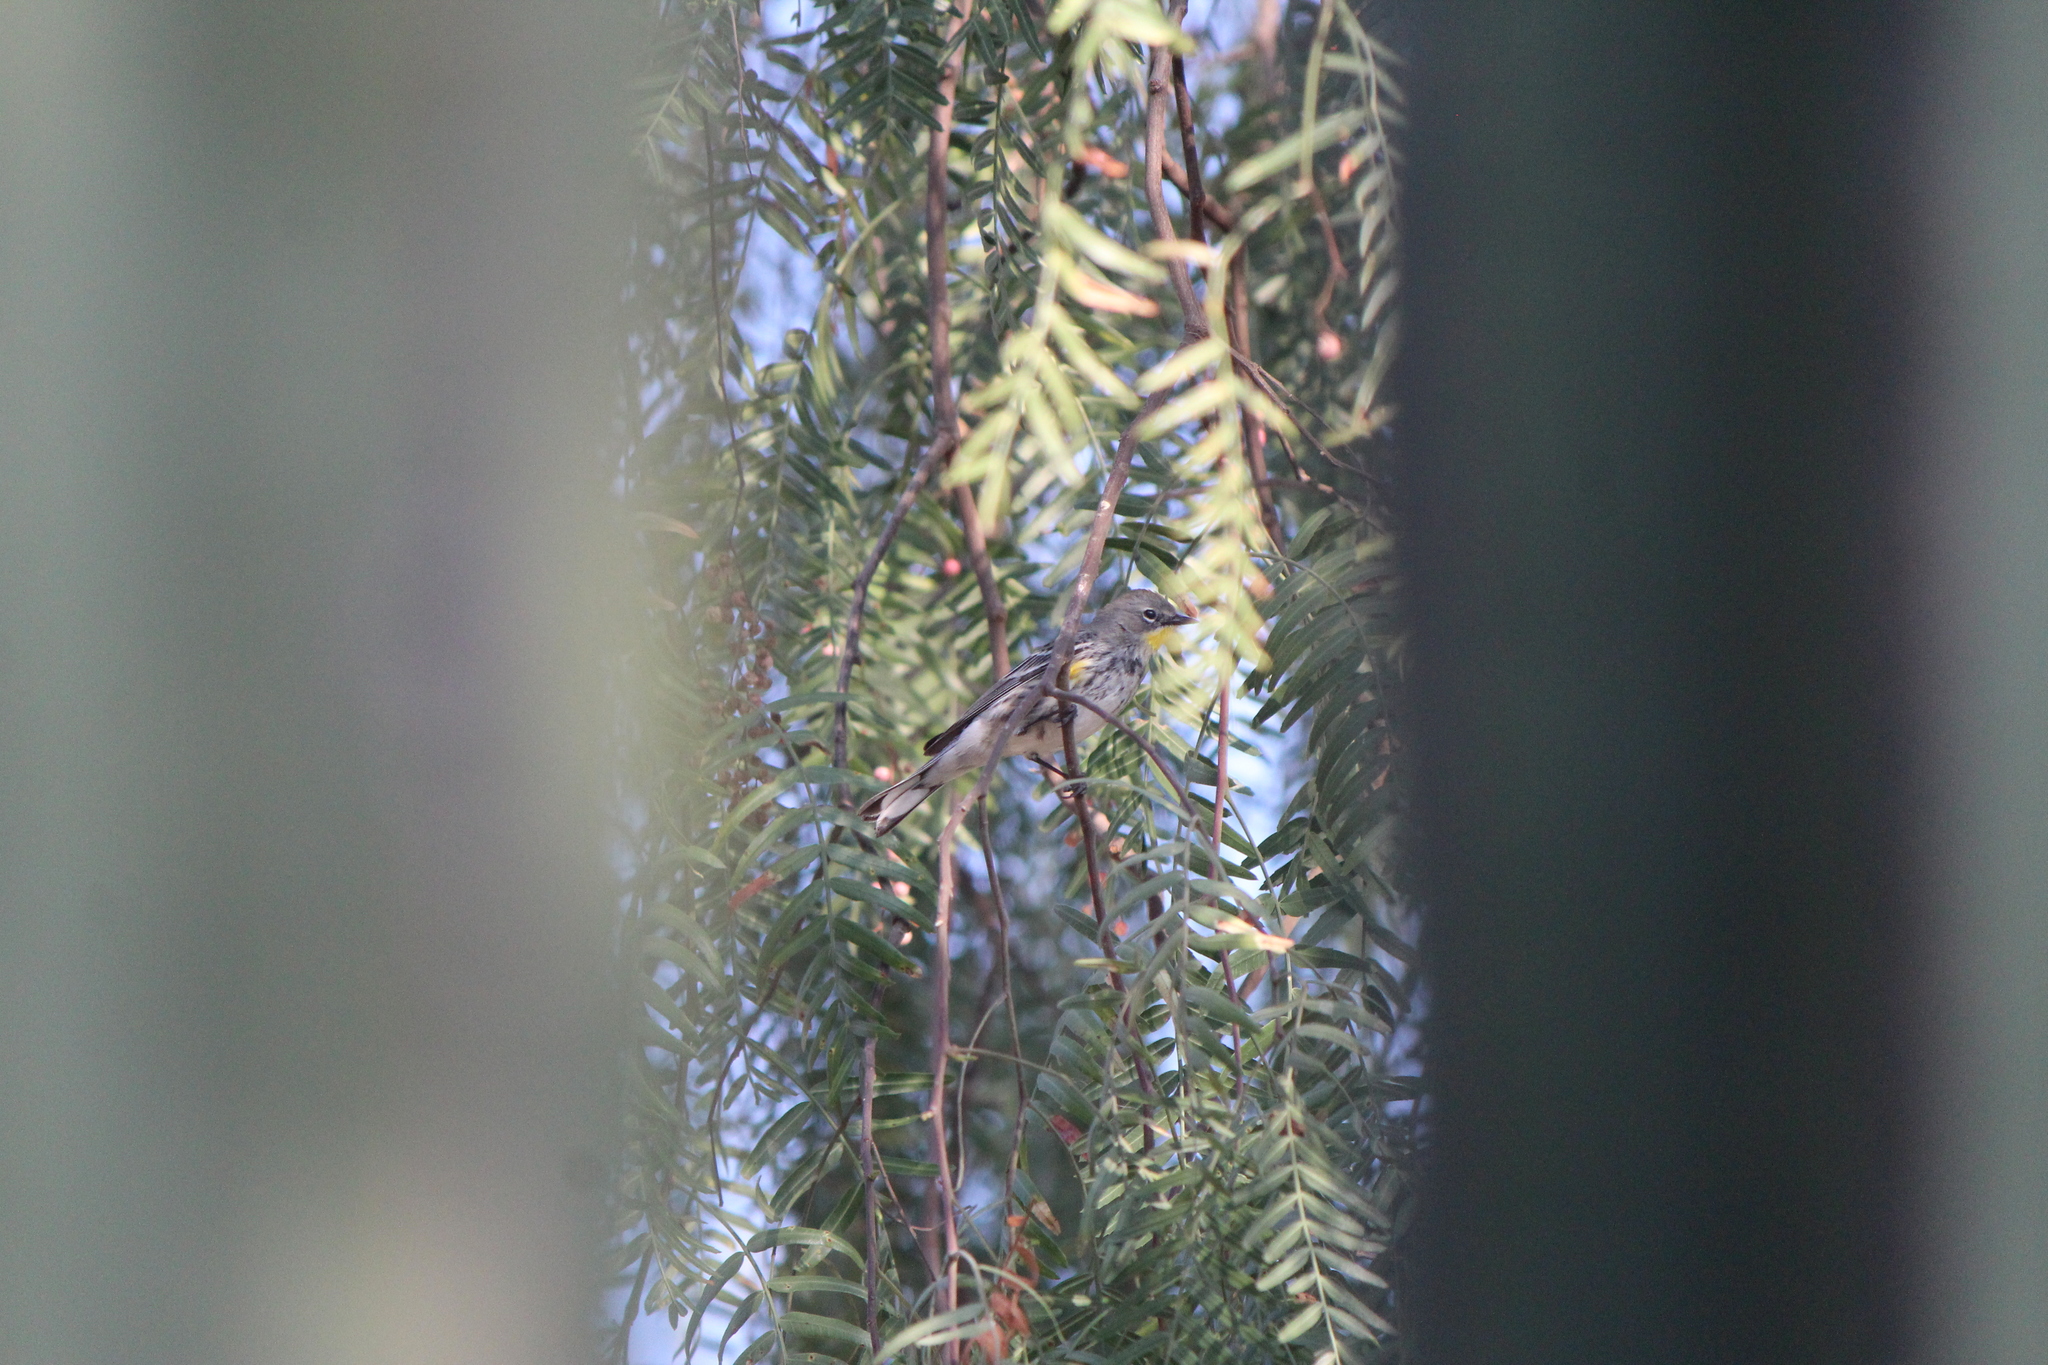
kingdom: Animalia
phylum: Chordata
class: Aves
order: Passeriformes
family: Parulidae
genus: Setophaga
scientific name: Setophaga auduboni
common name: Audubon's warbler
